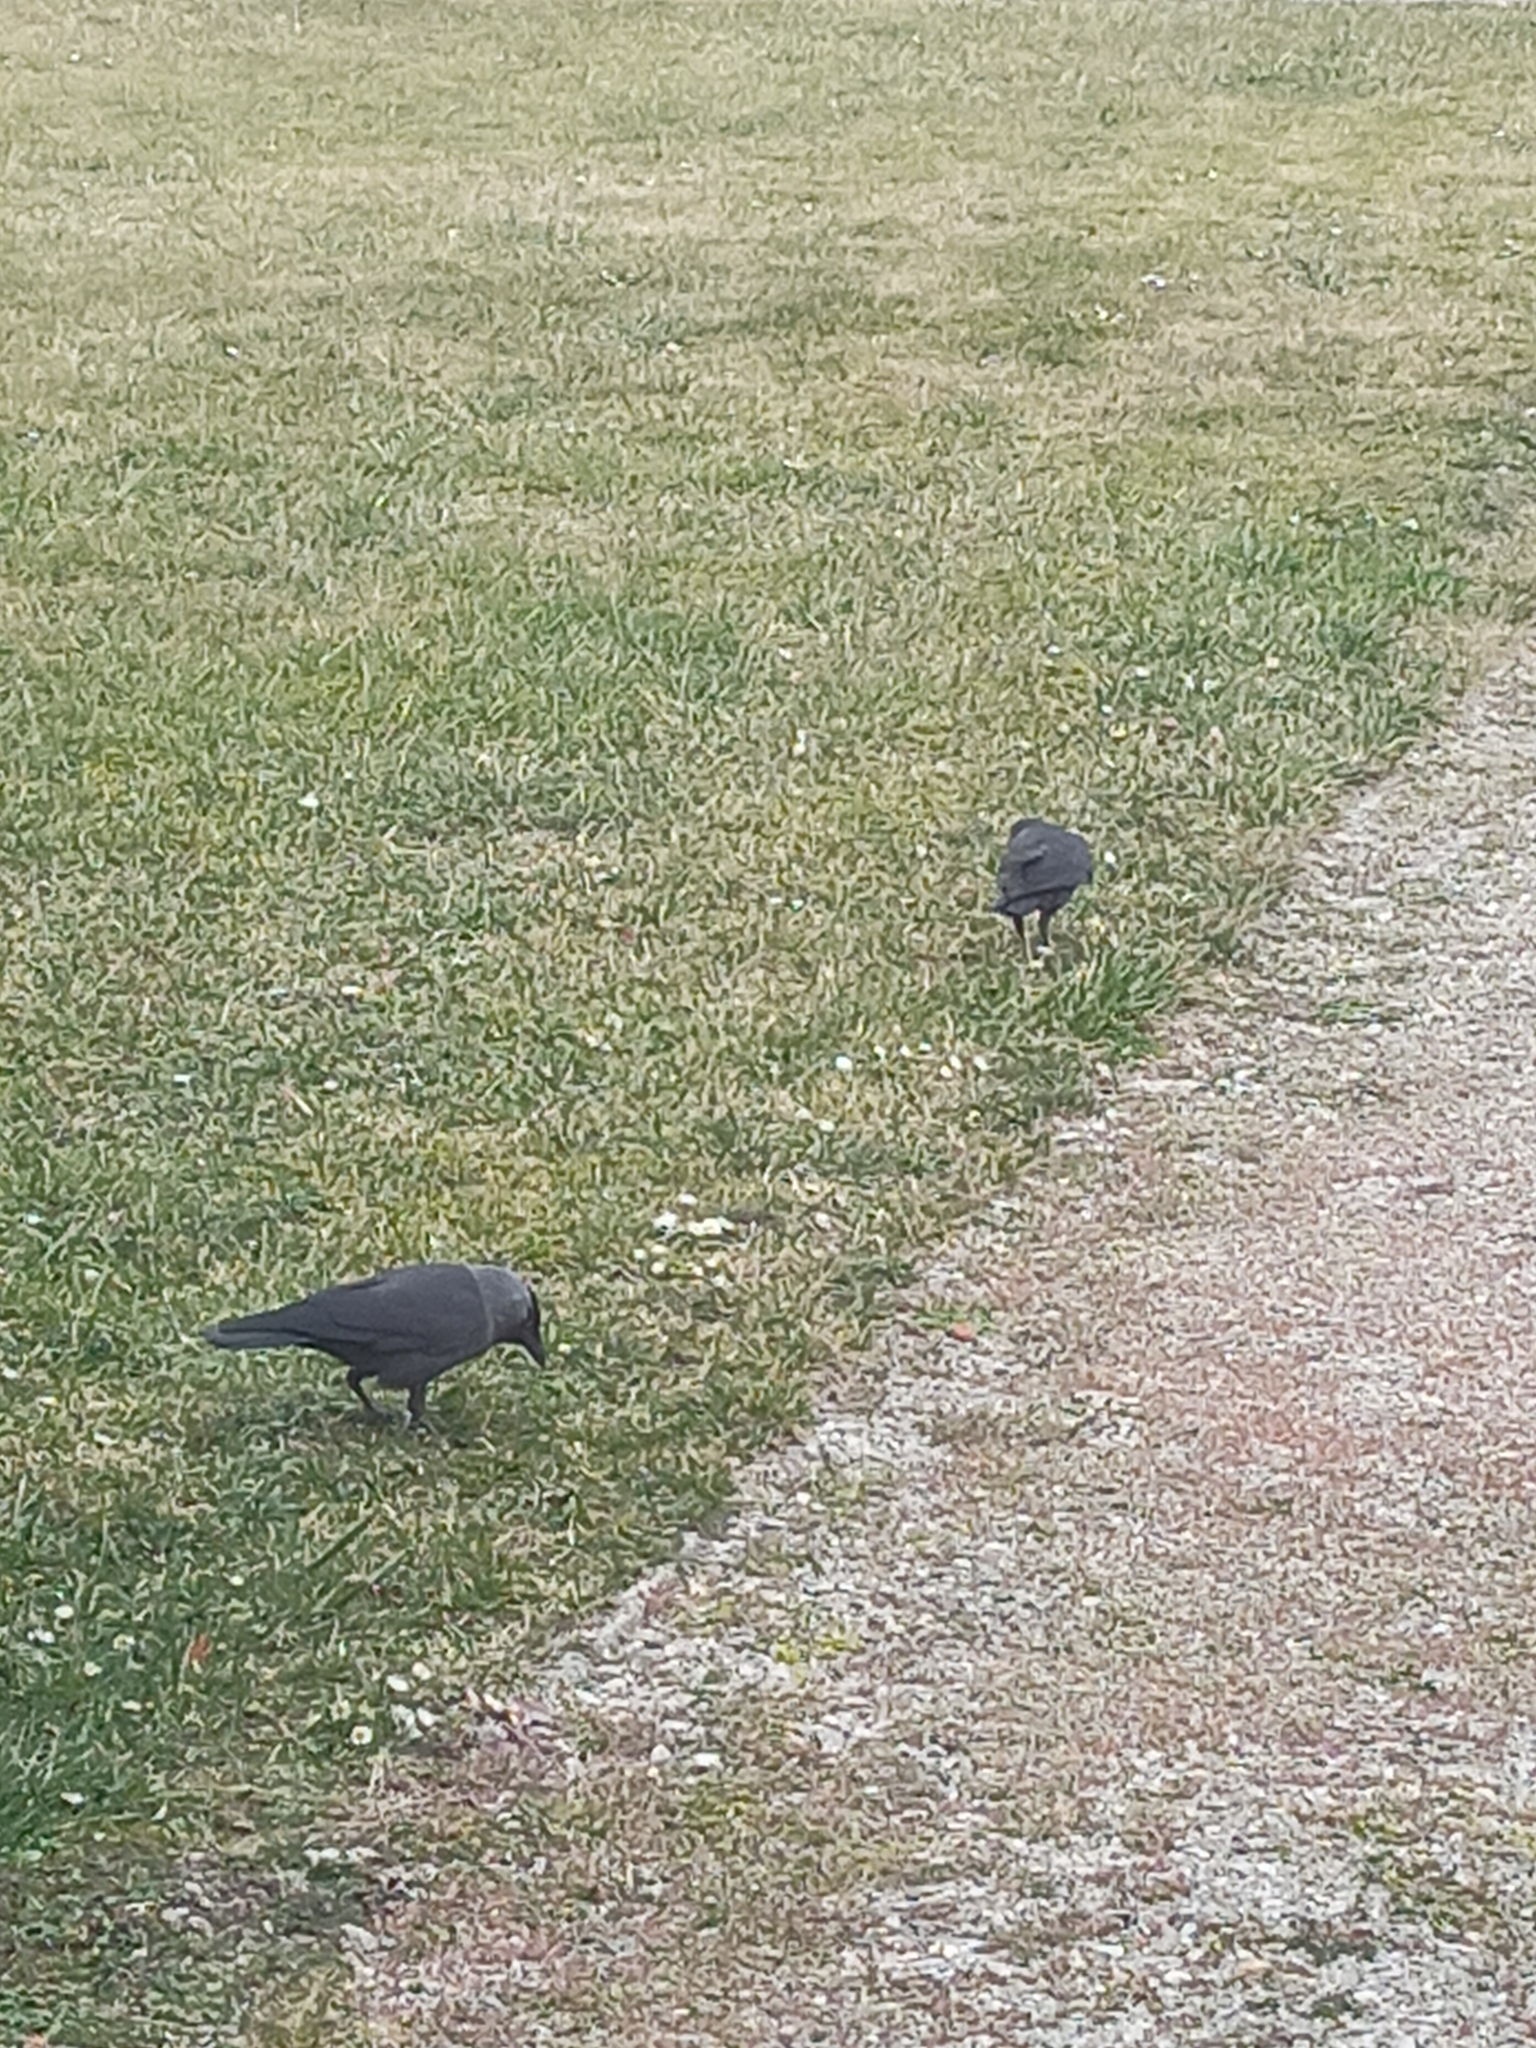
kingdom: Animalia
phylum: Chordata
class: Aves
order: Passeriformes
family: Corvidae
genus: Coloeus
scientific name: Coloeus monedula
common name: Western jackdaw
